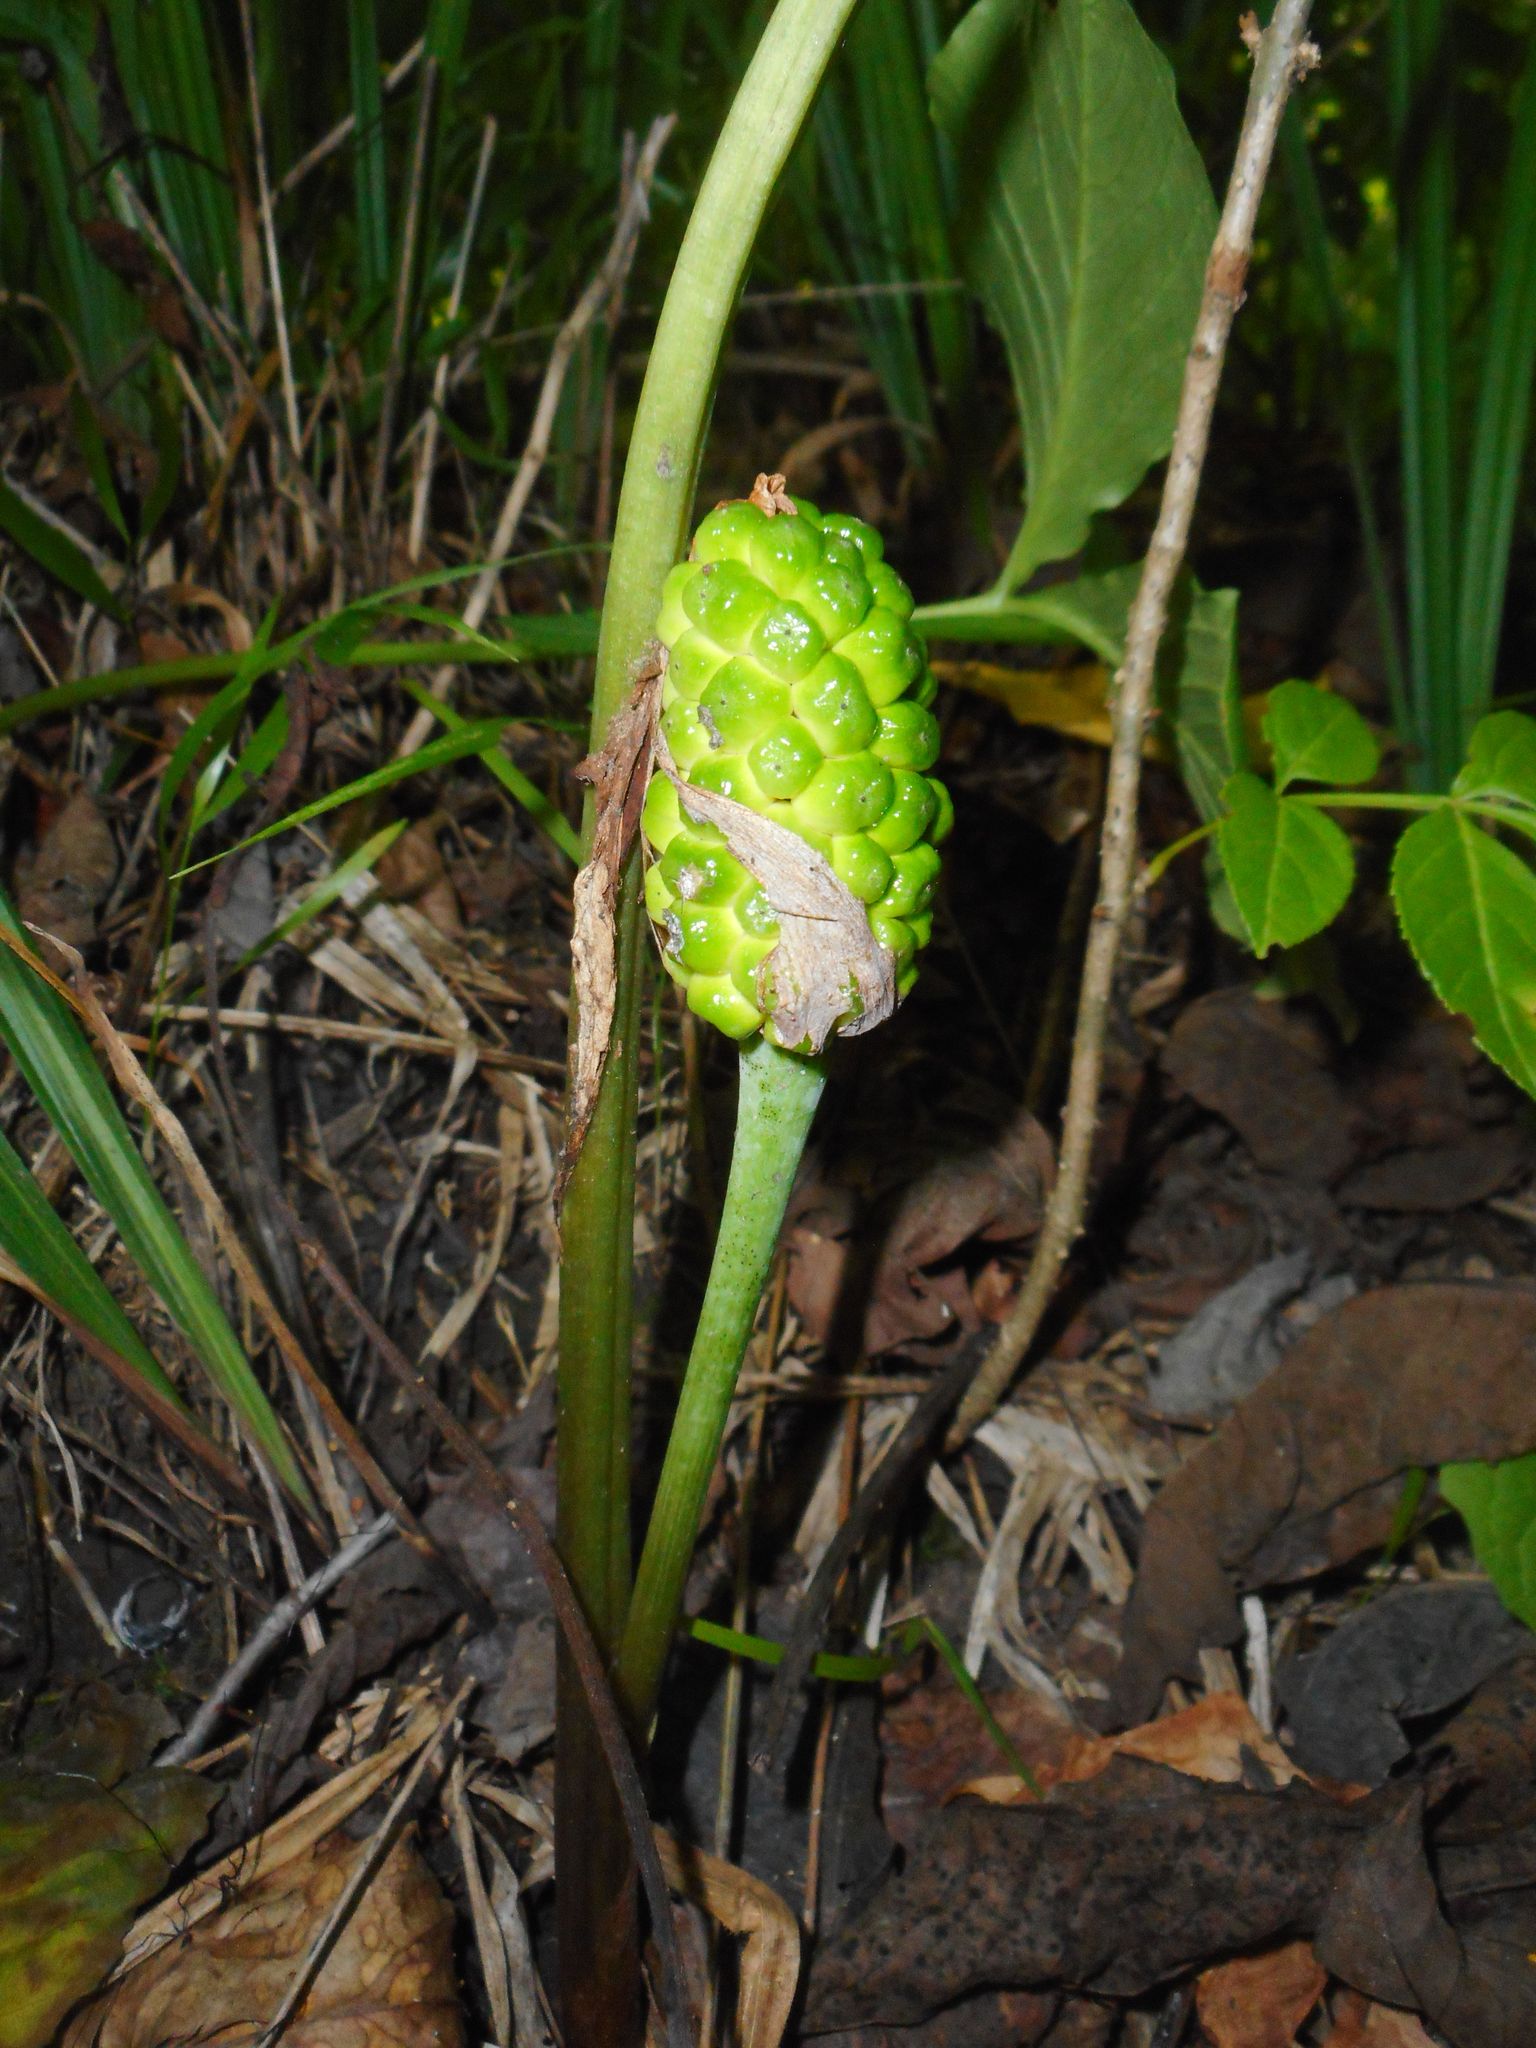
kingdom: Plantae
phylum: Tracheophyta
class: Liliopsida
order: Alismatales
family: Araceae
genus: Arisaema
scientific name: Arisaema amurense
